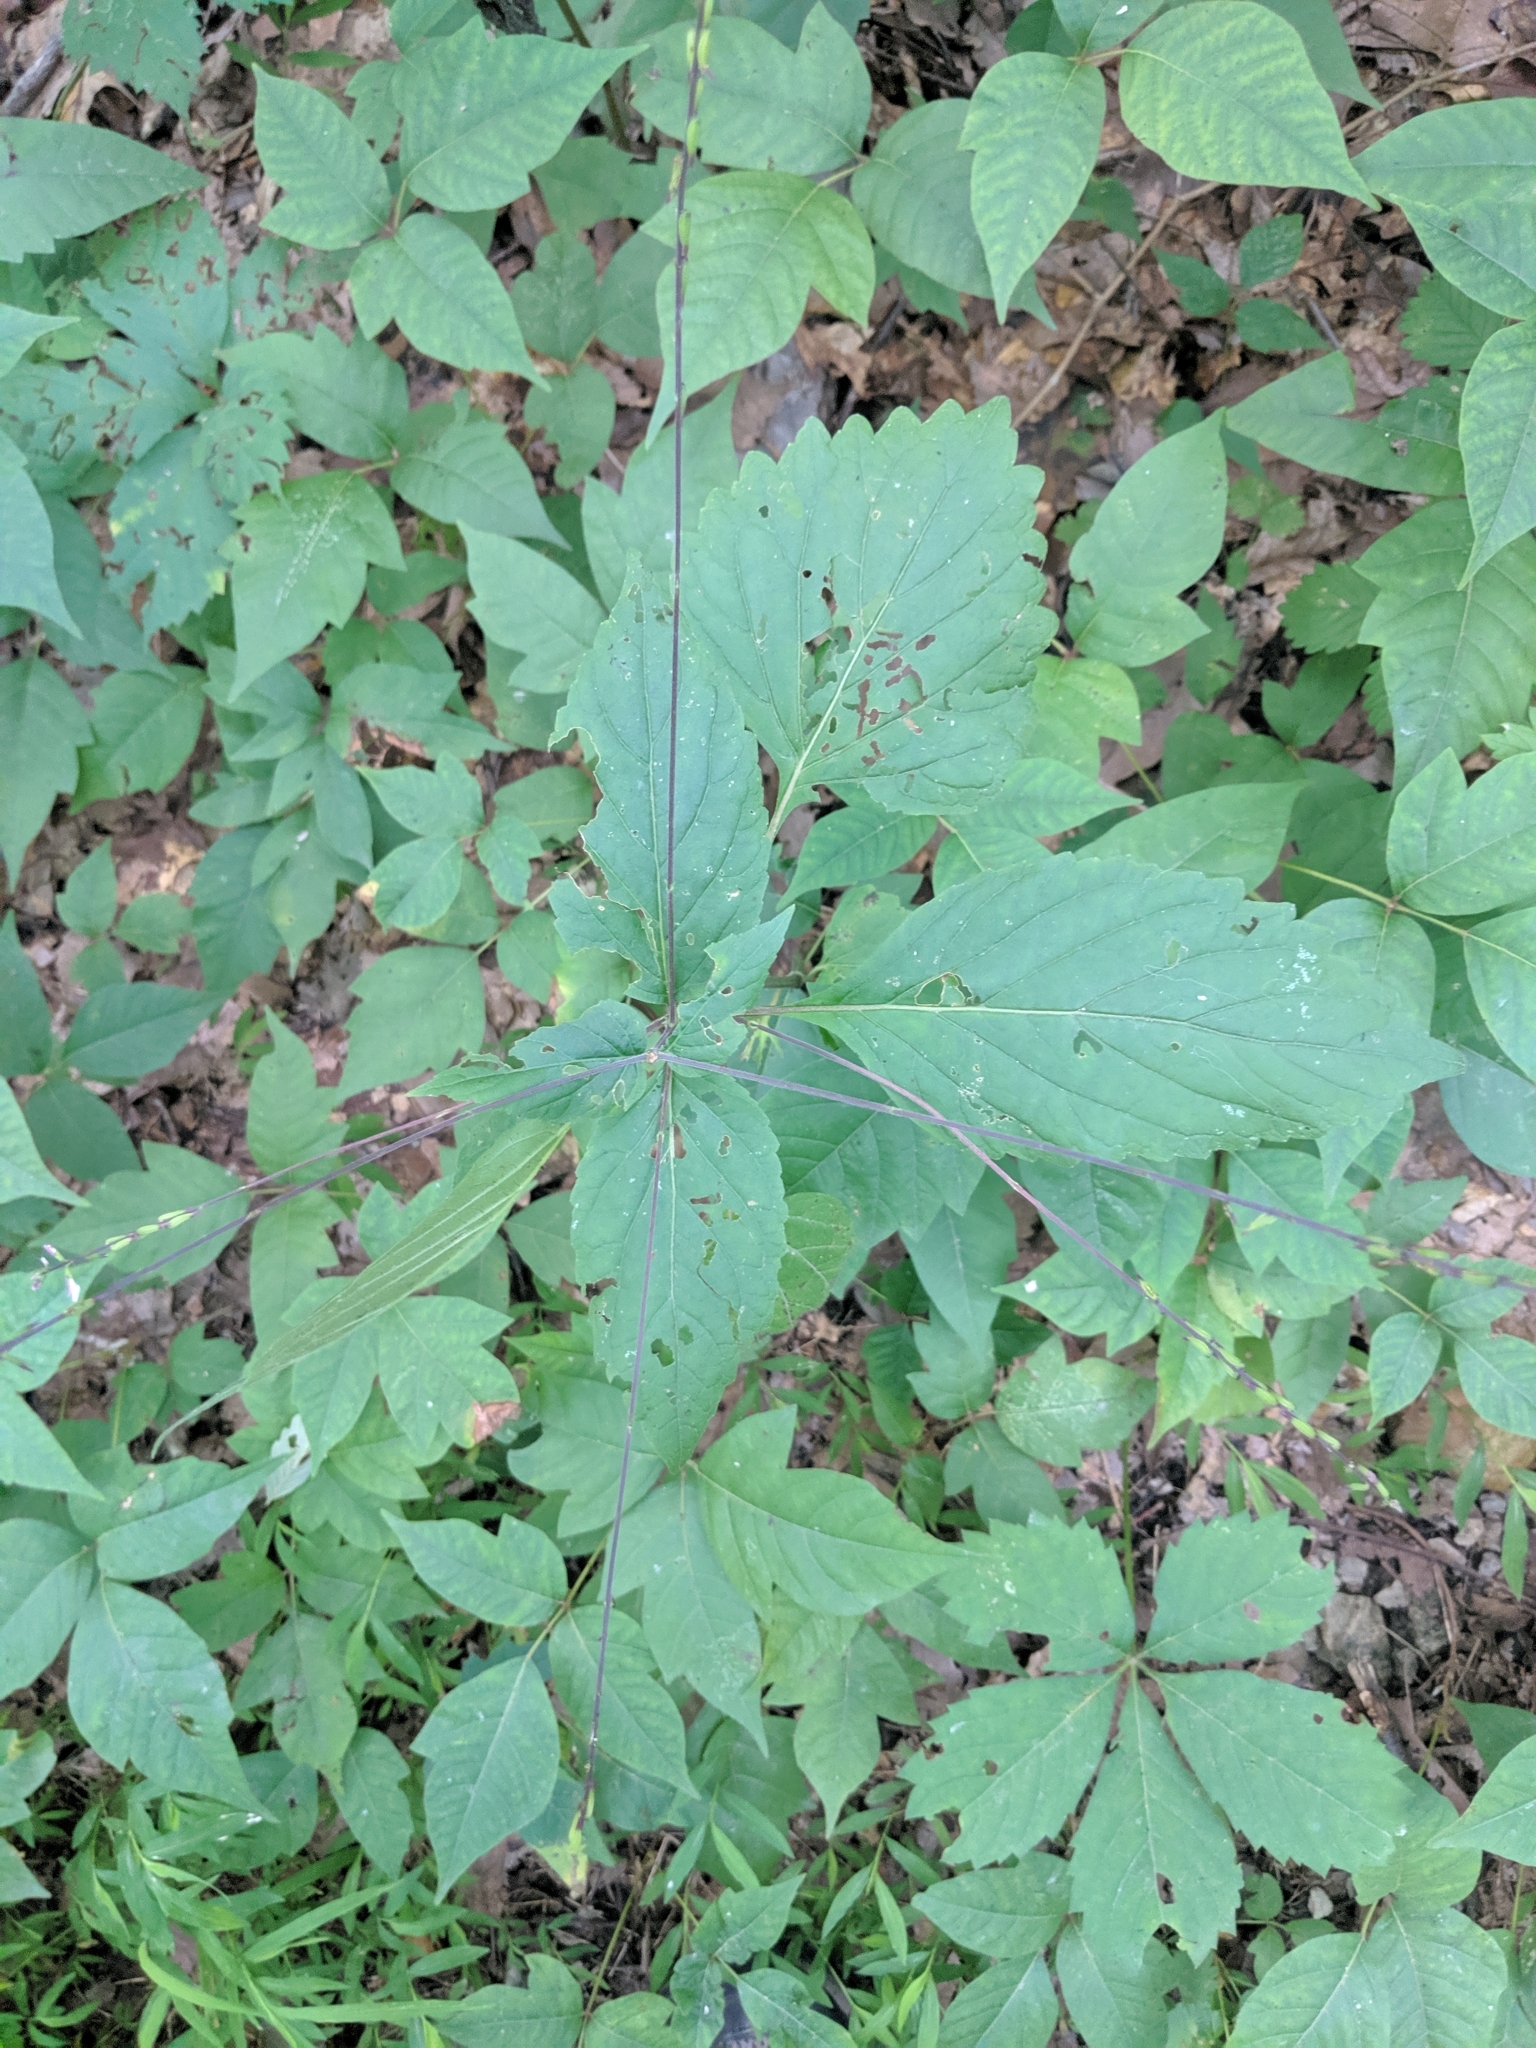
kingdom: Plantae
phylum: Tracheophyta
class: Magnoliopsida
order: Lamiales
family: Phrymaceae
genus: Phryma
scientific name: Phryma leptostachya
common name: American lopseed
